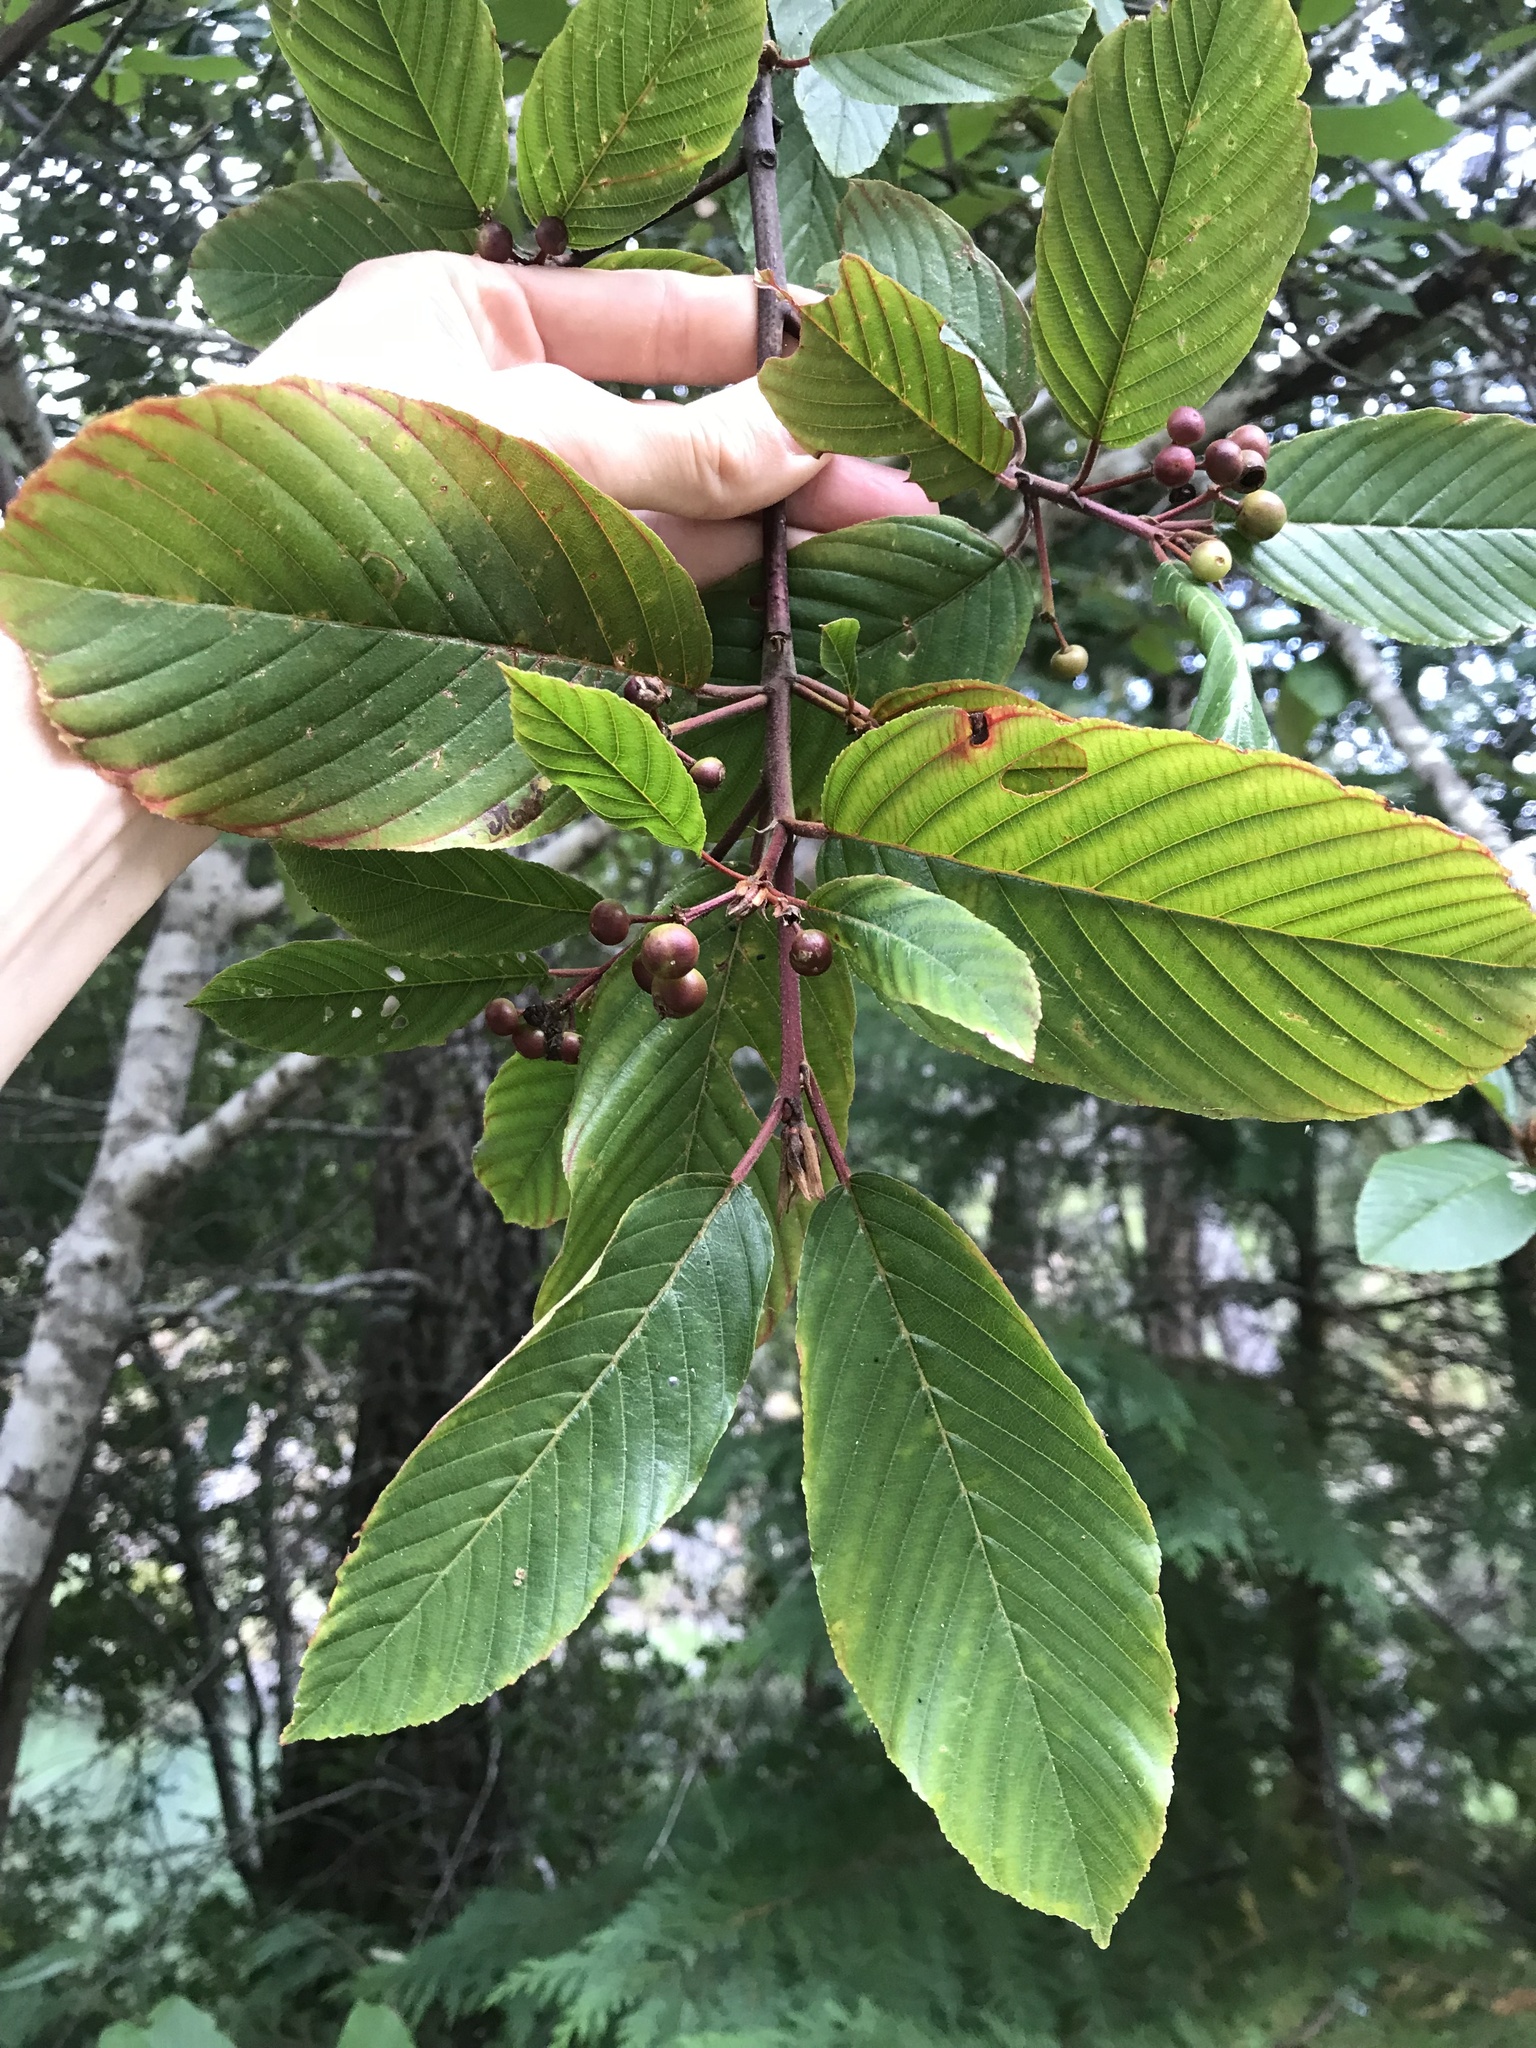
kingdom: Plantae
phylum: Tracheophyta
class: Magnoliopsida
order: Rosales
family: Rhamnaceae
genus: Frangula
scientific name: Frangula purshiana
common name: Cascara buckthorn
